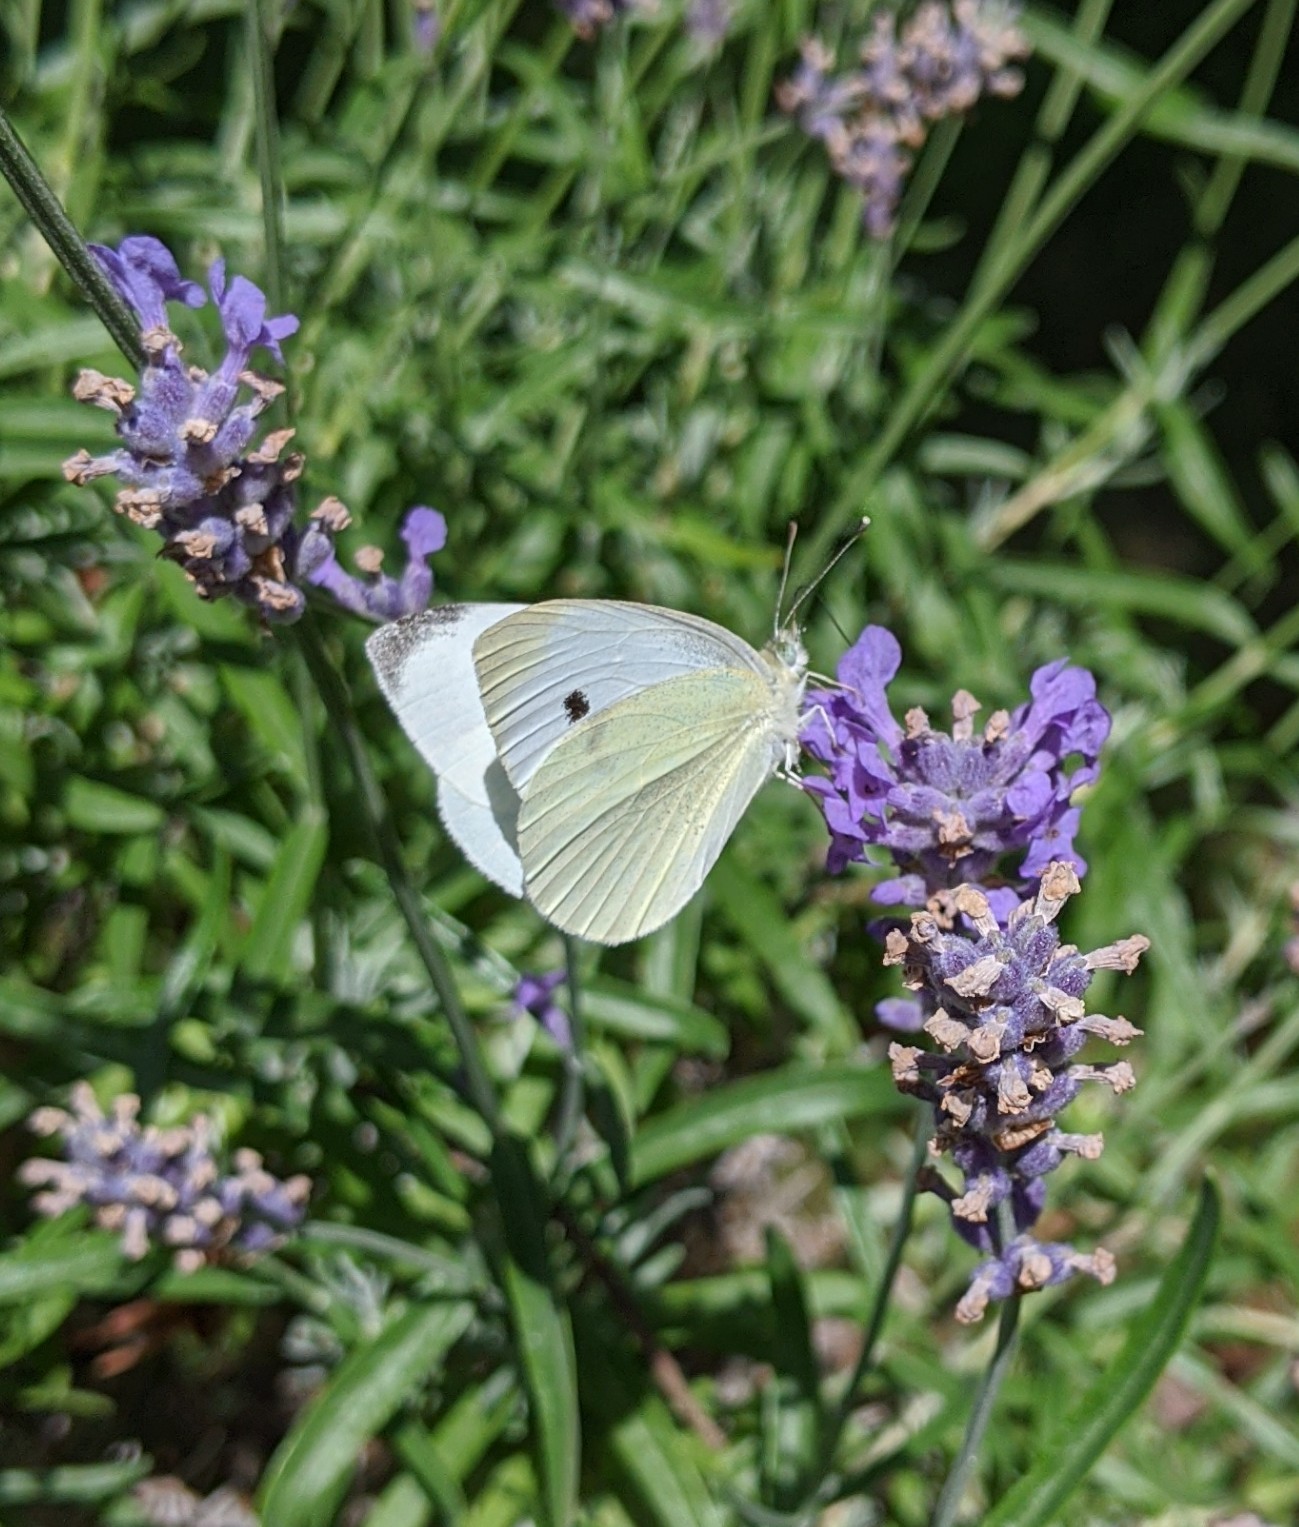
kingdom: Animalia
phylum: Arthropoda
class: Insecta
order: Lepidoptera
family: Pieridae
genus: Pieris
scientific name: Pieris rapae
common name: Small white
